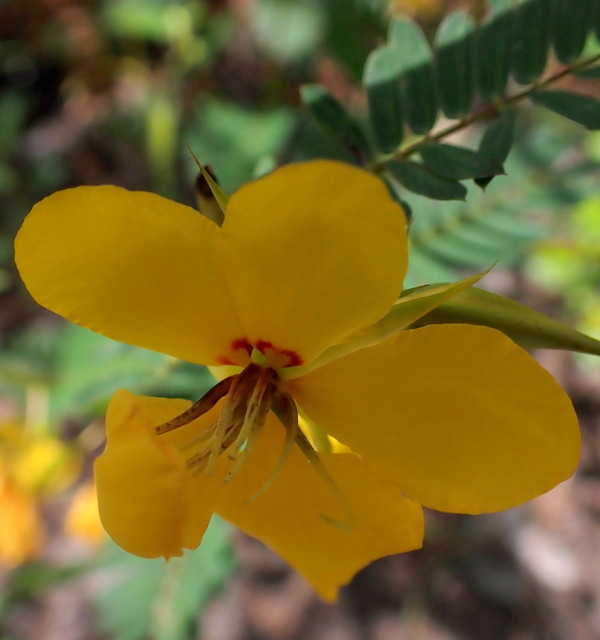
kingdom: Plantae
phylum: Tracheophyta
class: Magnoliopsida
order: Fabales
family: Fabaceae
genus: Chamaecrista
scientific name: Chamaecrista fasciculata
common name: Golden cassia
